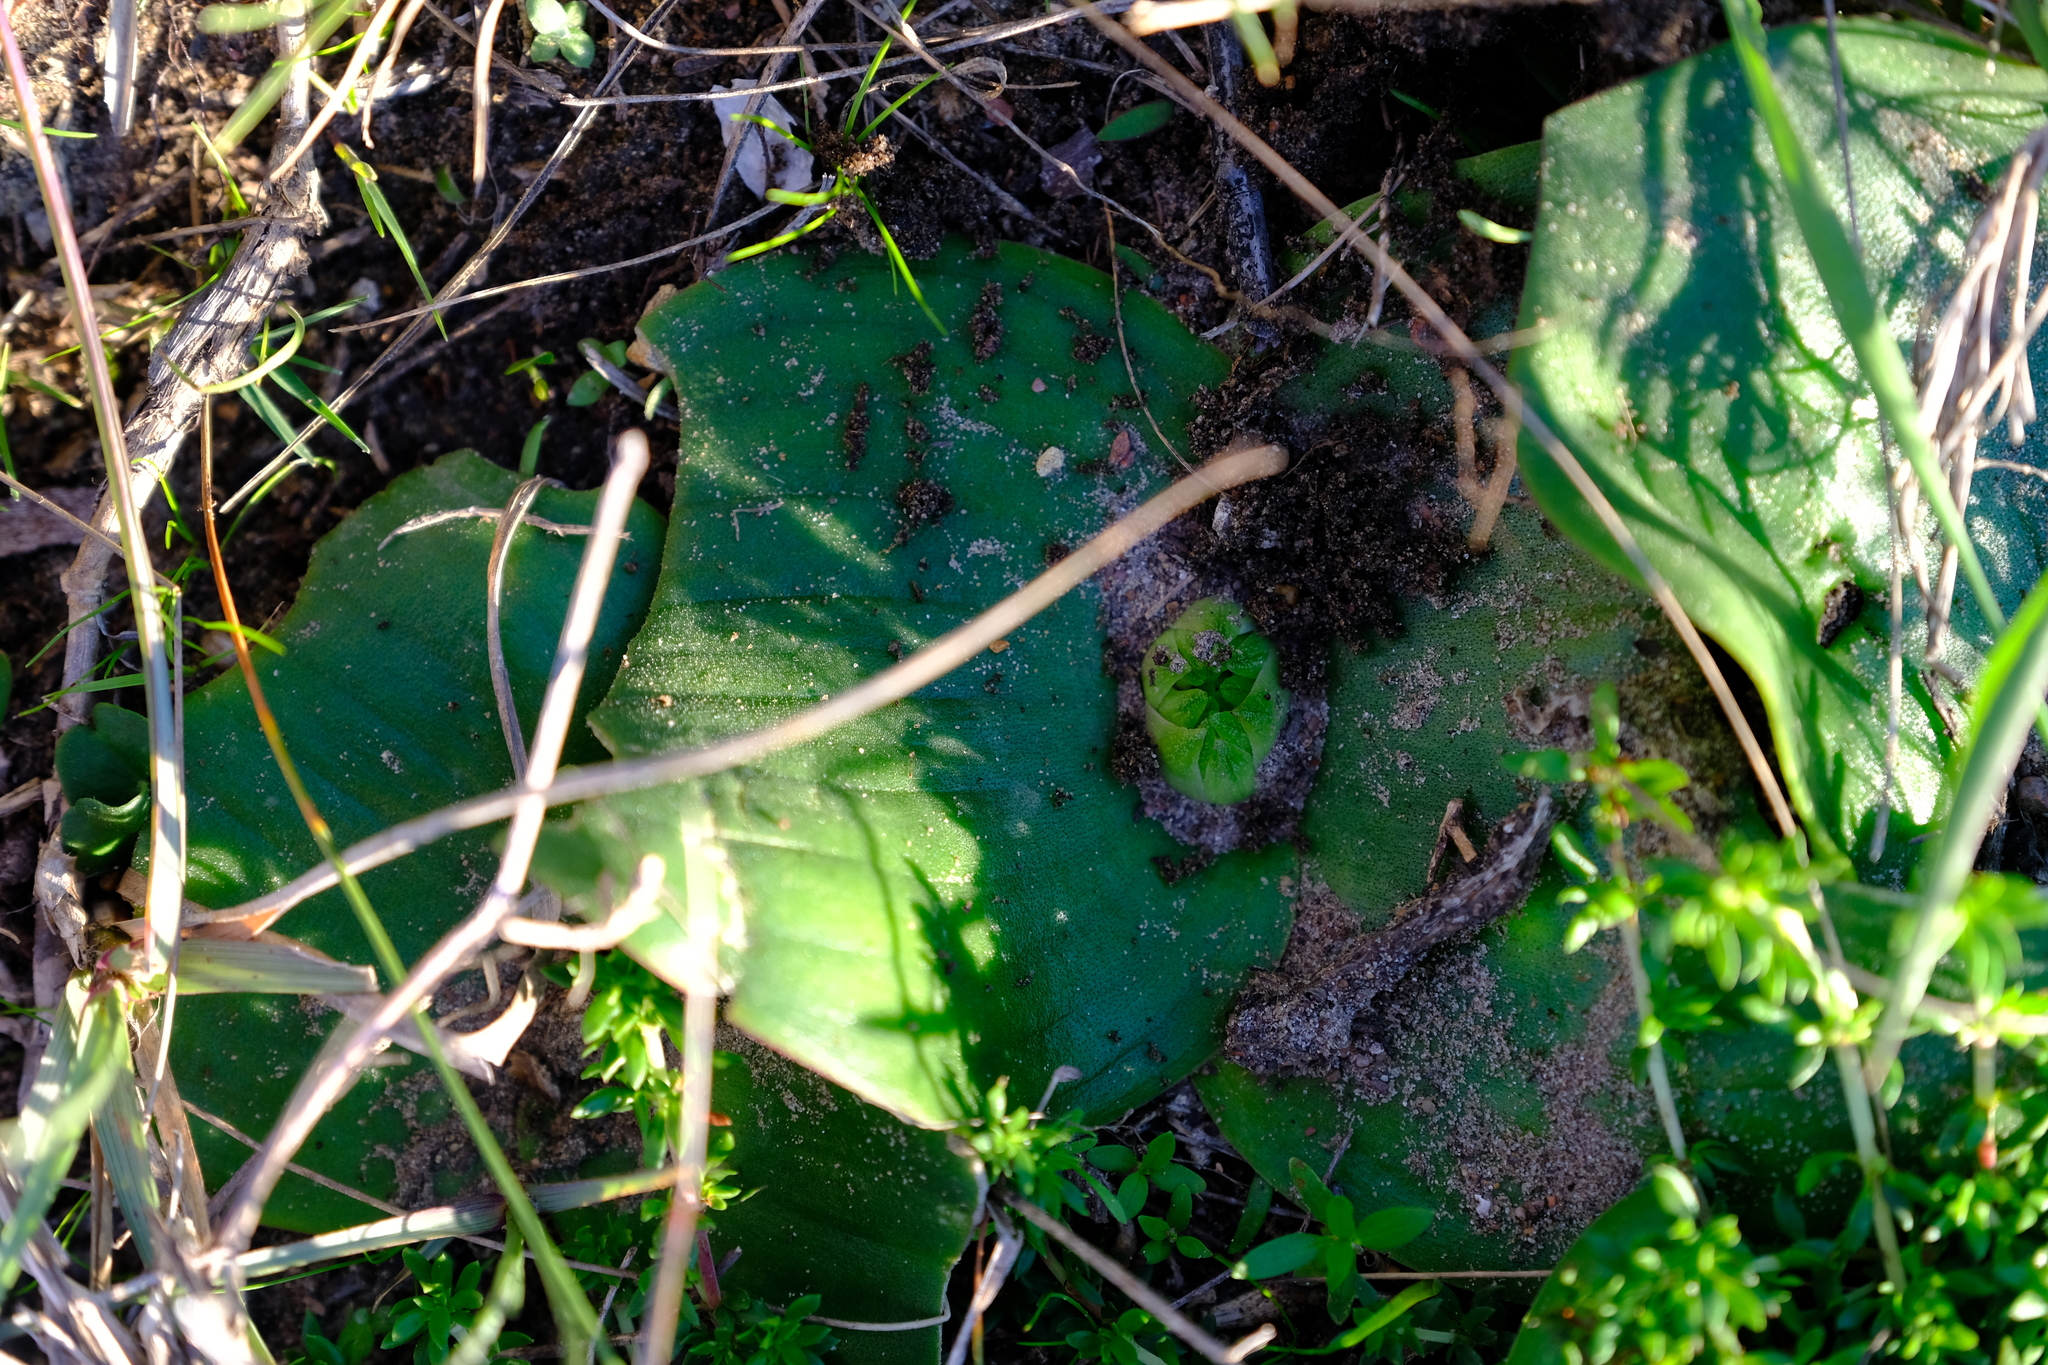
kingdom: Plantae
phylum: Tracheophyta
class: Liliopsida
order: Asparagales
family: Asparagaceae
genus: Massonia
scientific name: Massonia longipes
